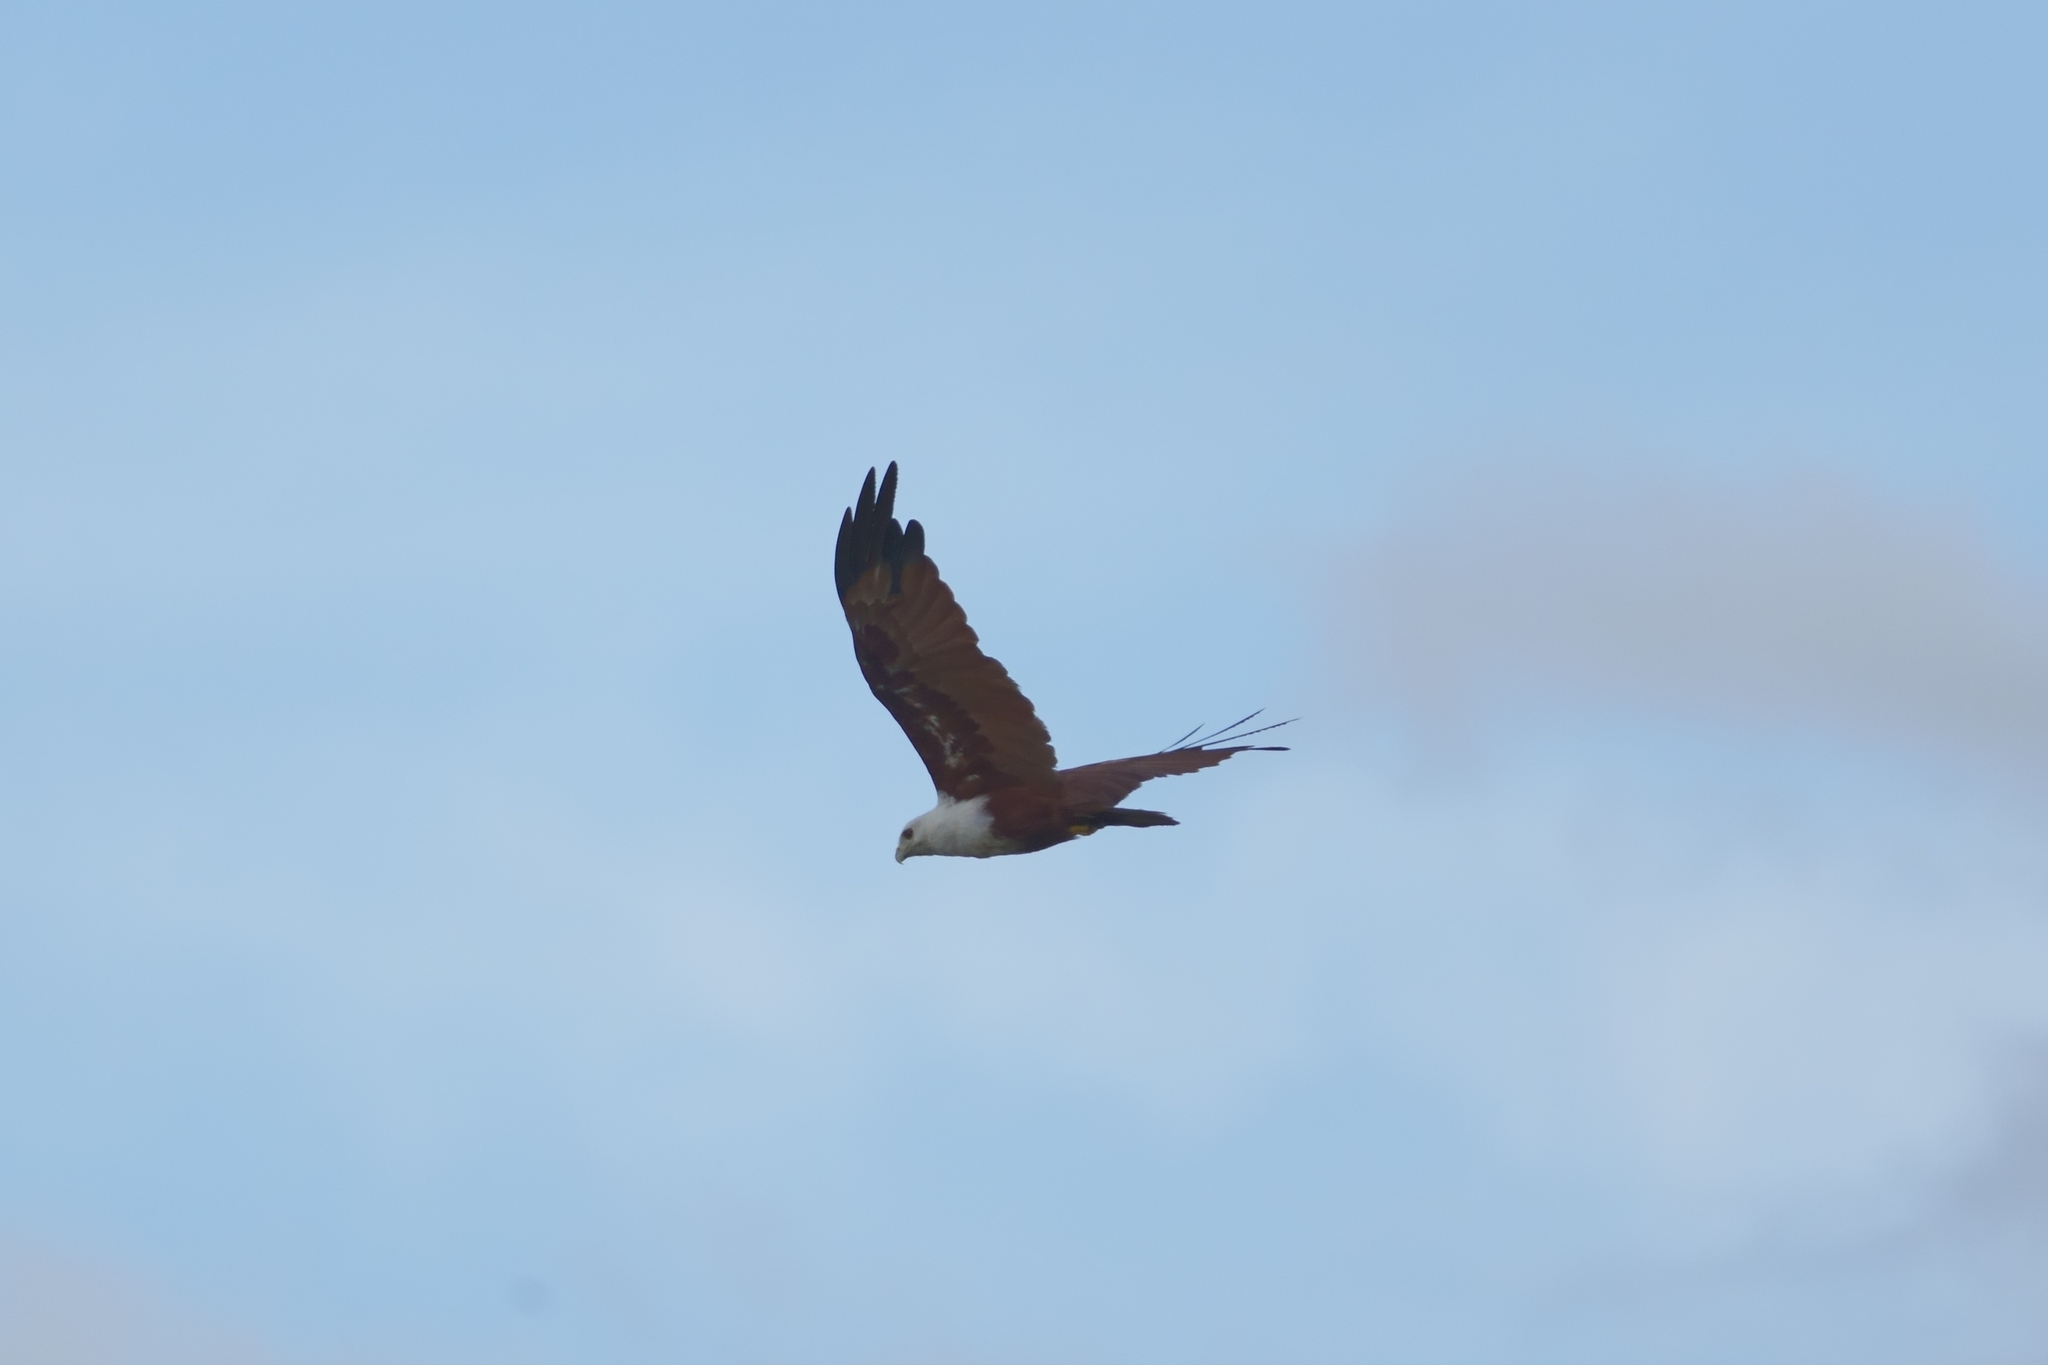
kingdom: Animalia
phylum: Chordata
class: Aves
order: Accipitriformes
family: Accipitridae
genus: Haliastur
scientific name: Haliastur indus
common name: Brahminy kite
